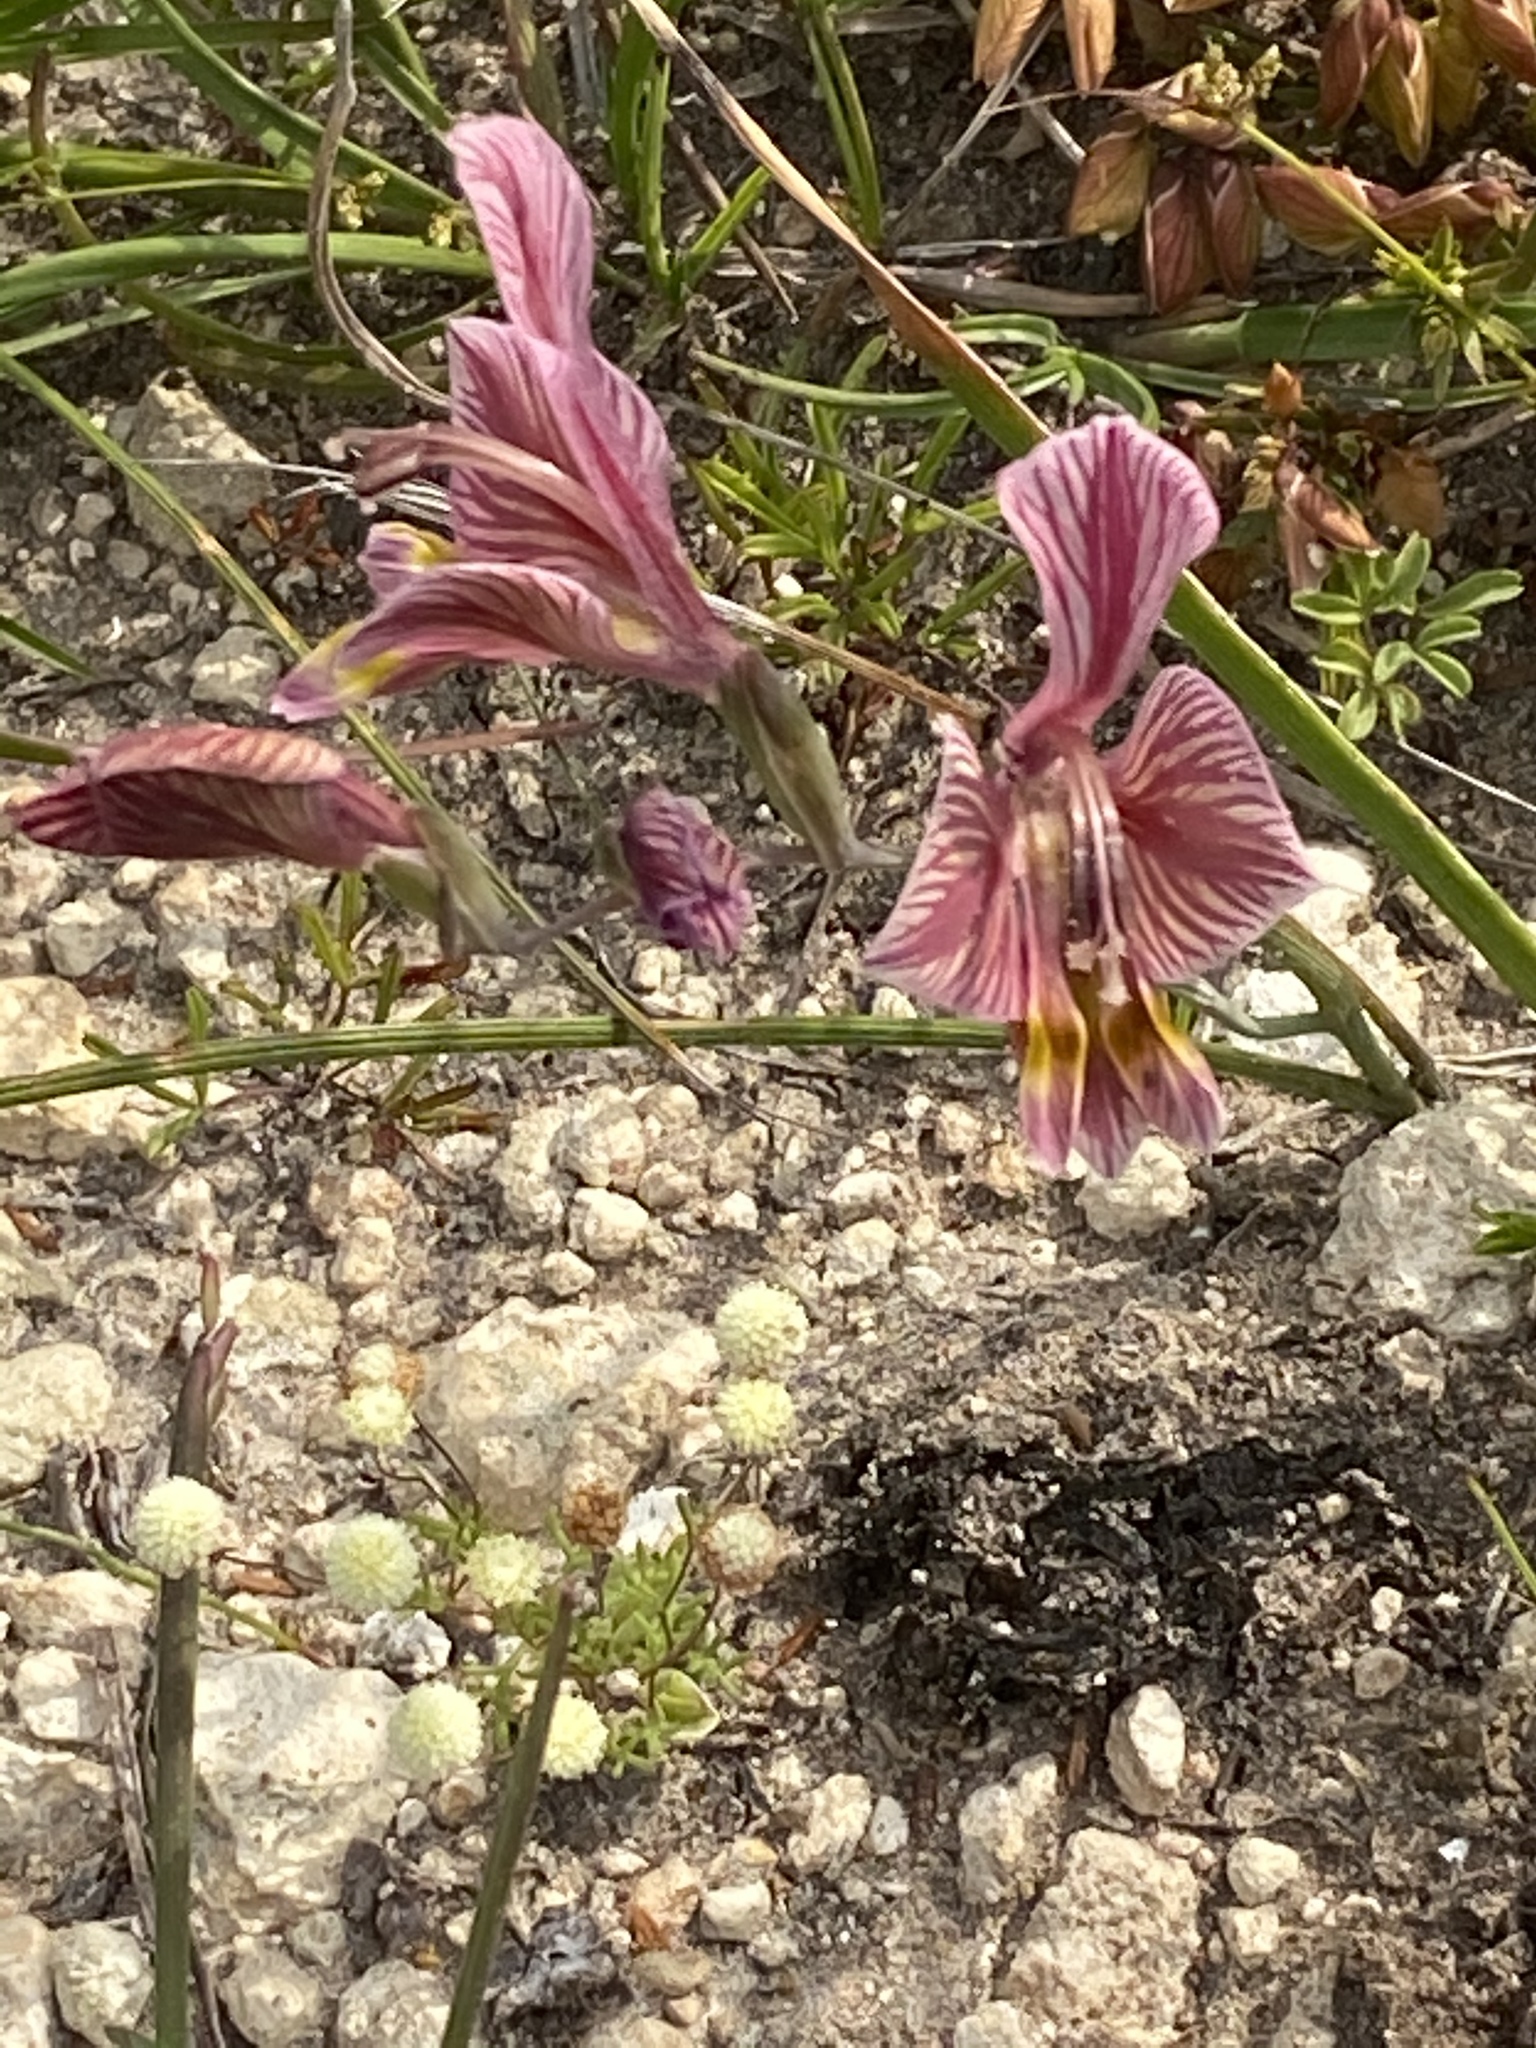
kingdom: Plantae
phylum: Tracheophyta
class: Liliopsida
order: Asparagales
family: Iridaceae
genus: Gladiolus
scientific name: Gladiolus virescens
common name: Yellow kalkoentjie
